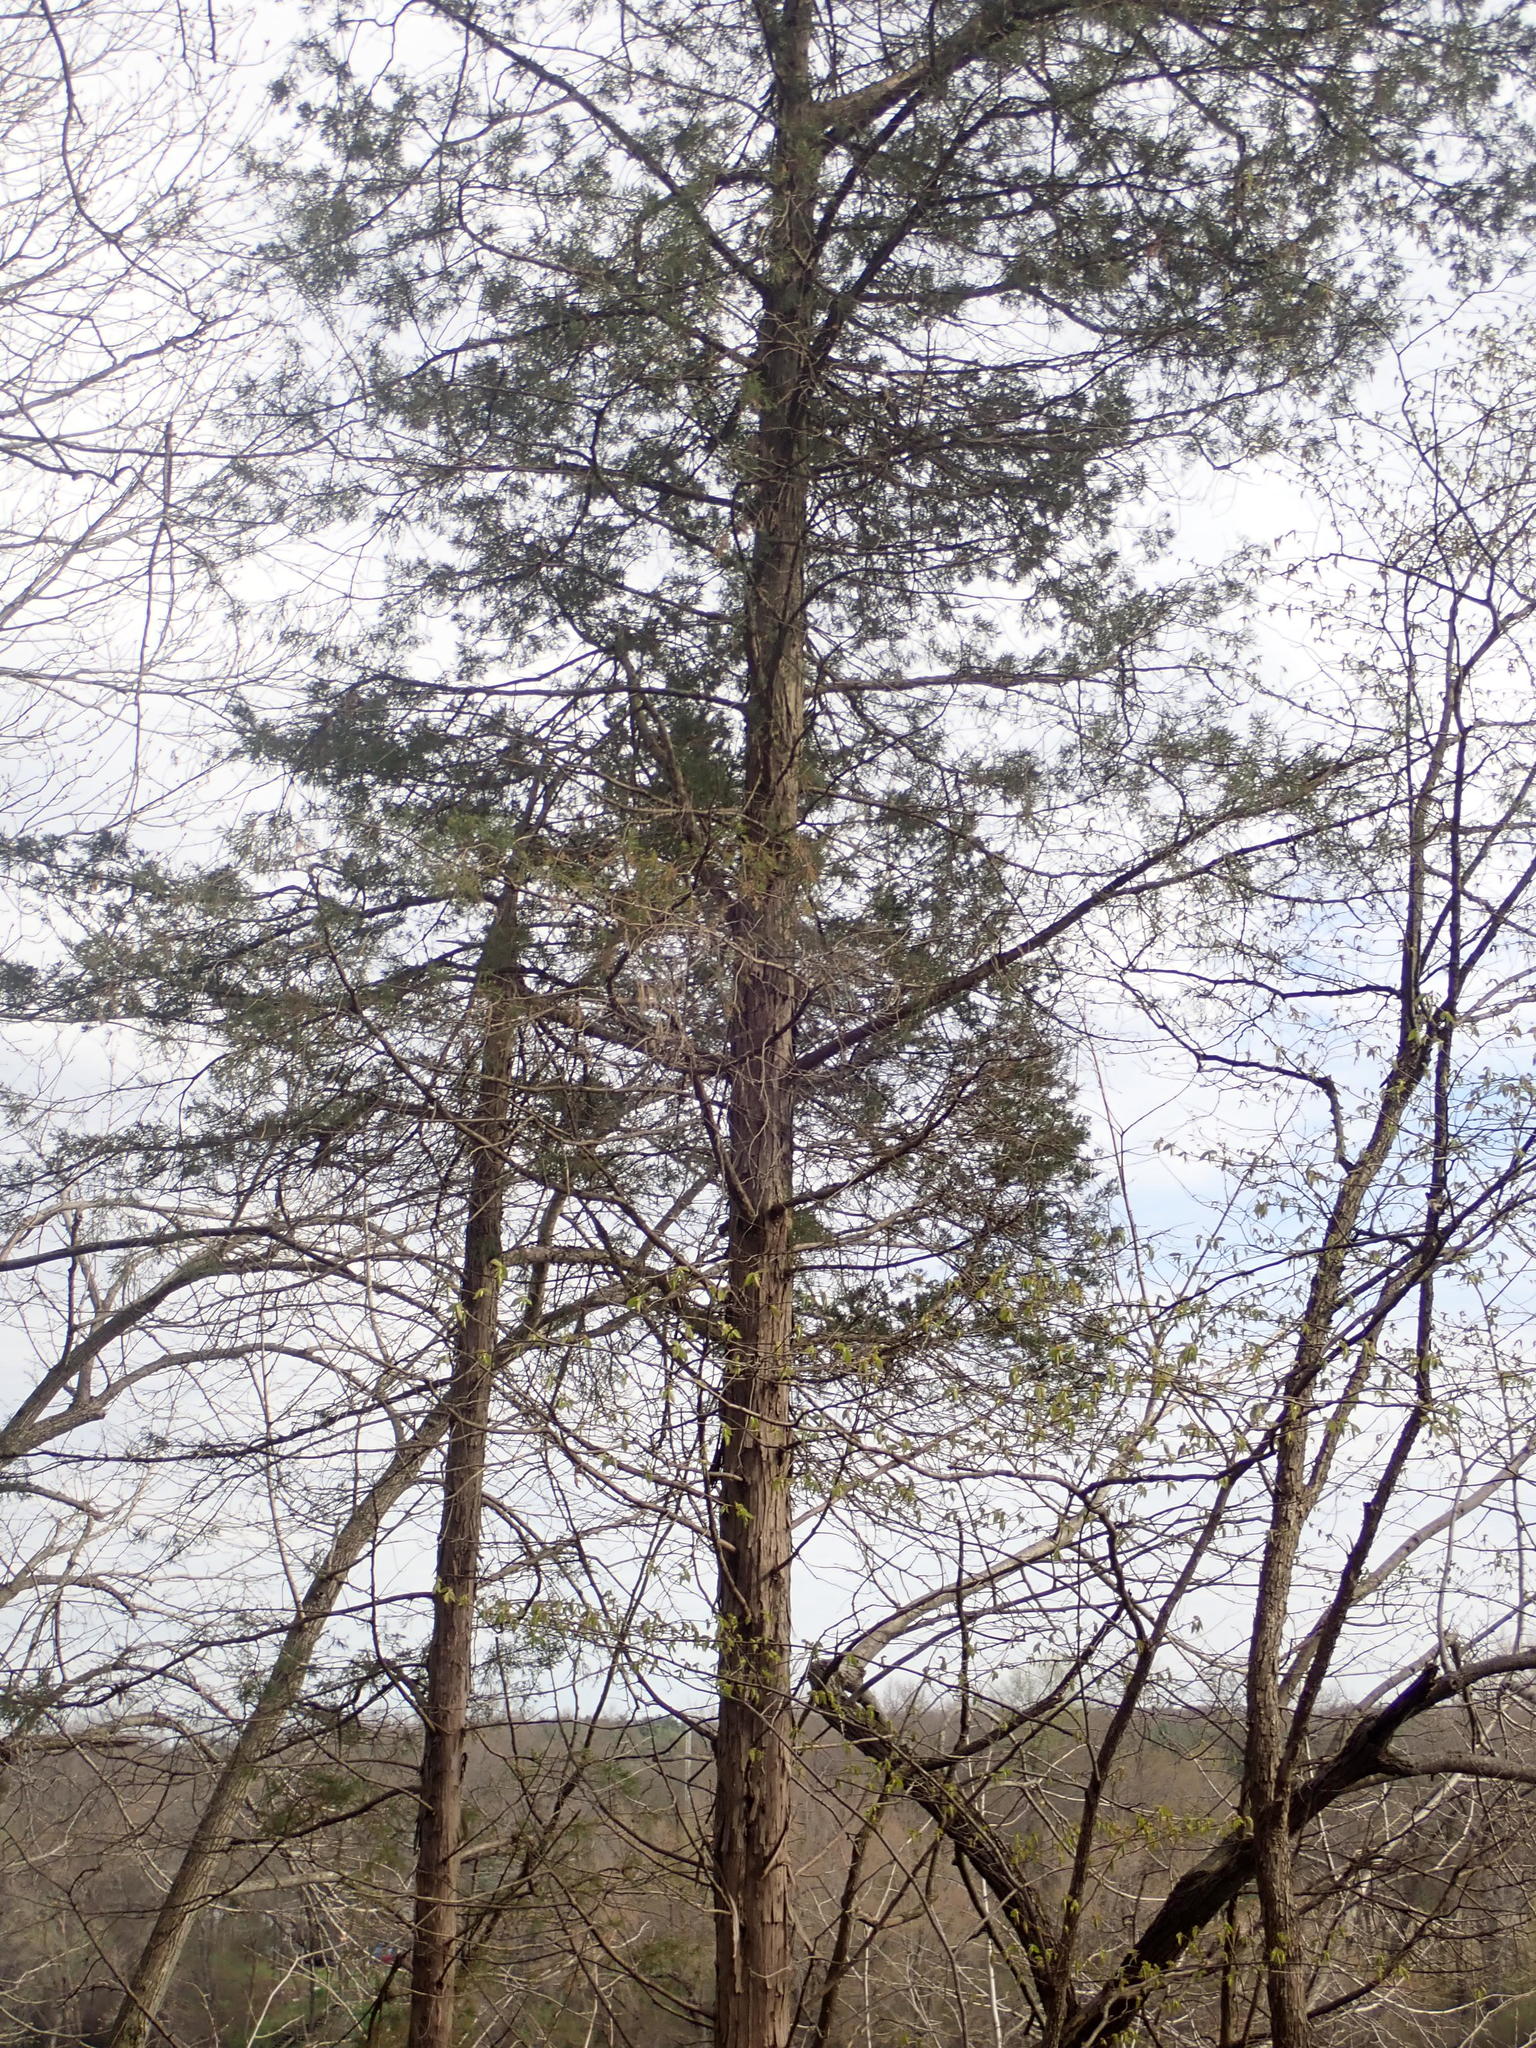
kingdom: Plantae
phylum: Tracheophyta
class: Pinopsida
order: Pinales
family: Cupressaceae
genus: Juniperus
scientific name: Juniperus virginiana
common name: Red juniper
